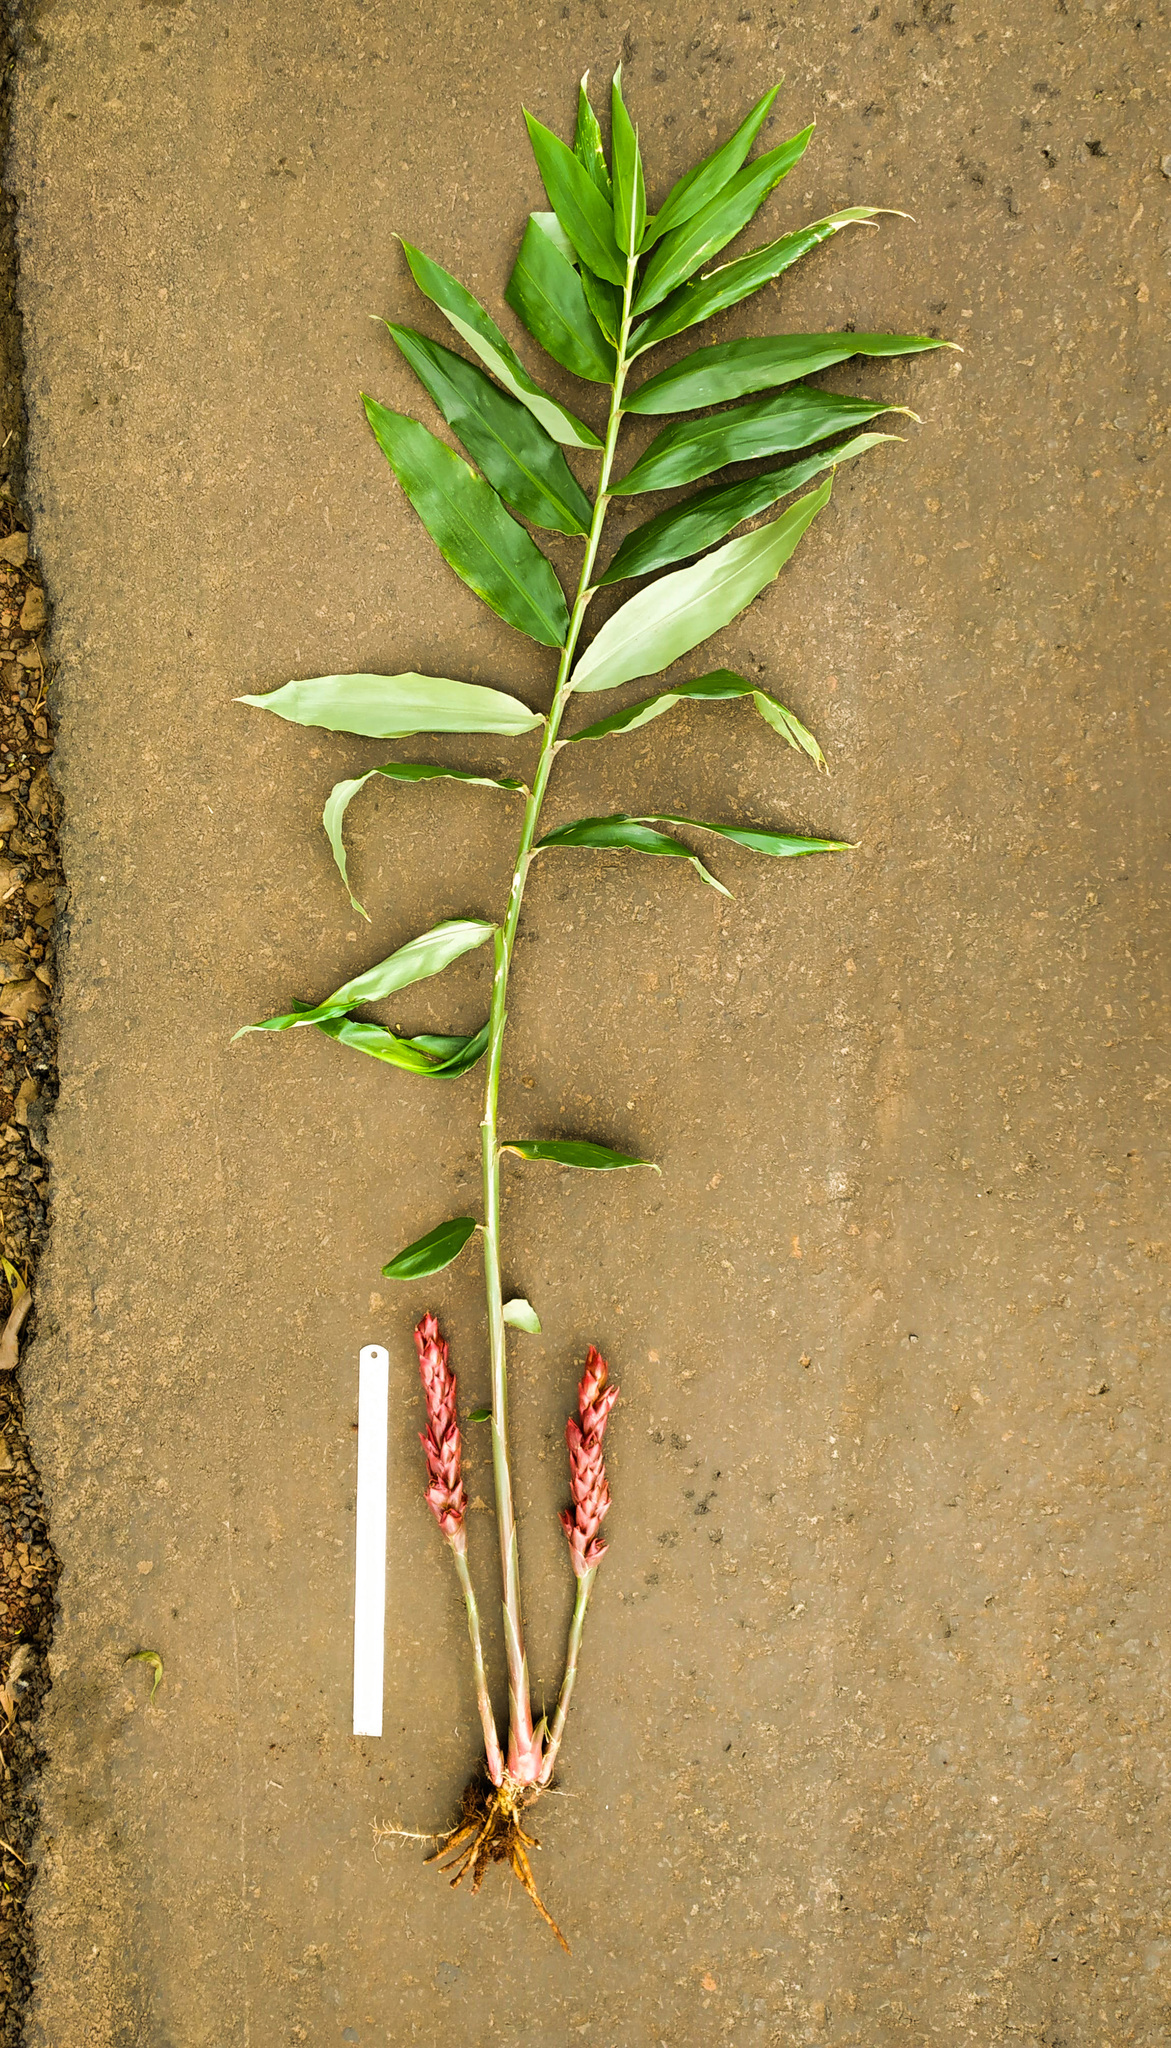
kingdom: Plantae
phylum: Tracheophyta
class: Liliopsida
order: Zingiberales
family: Zingiberaceae
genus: Zingiber
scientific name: Zingiber anamalayanum
